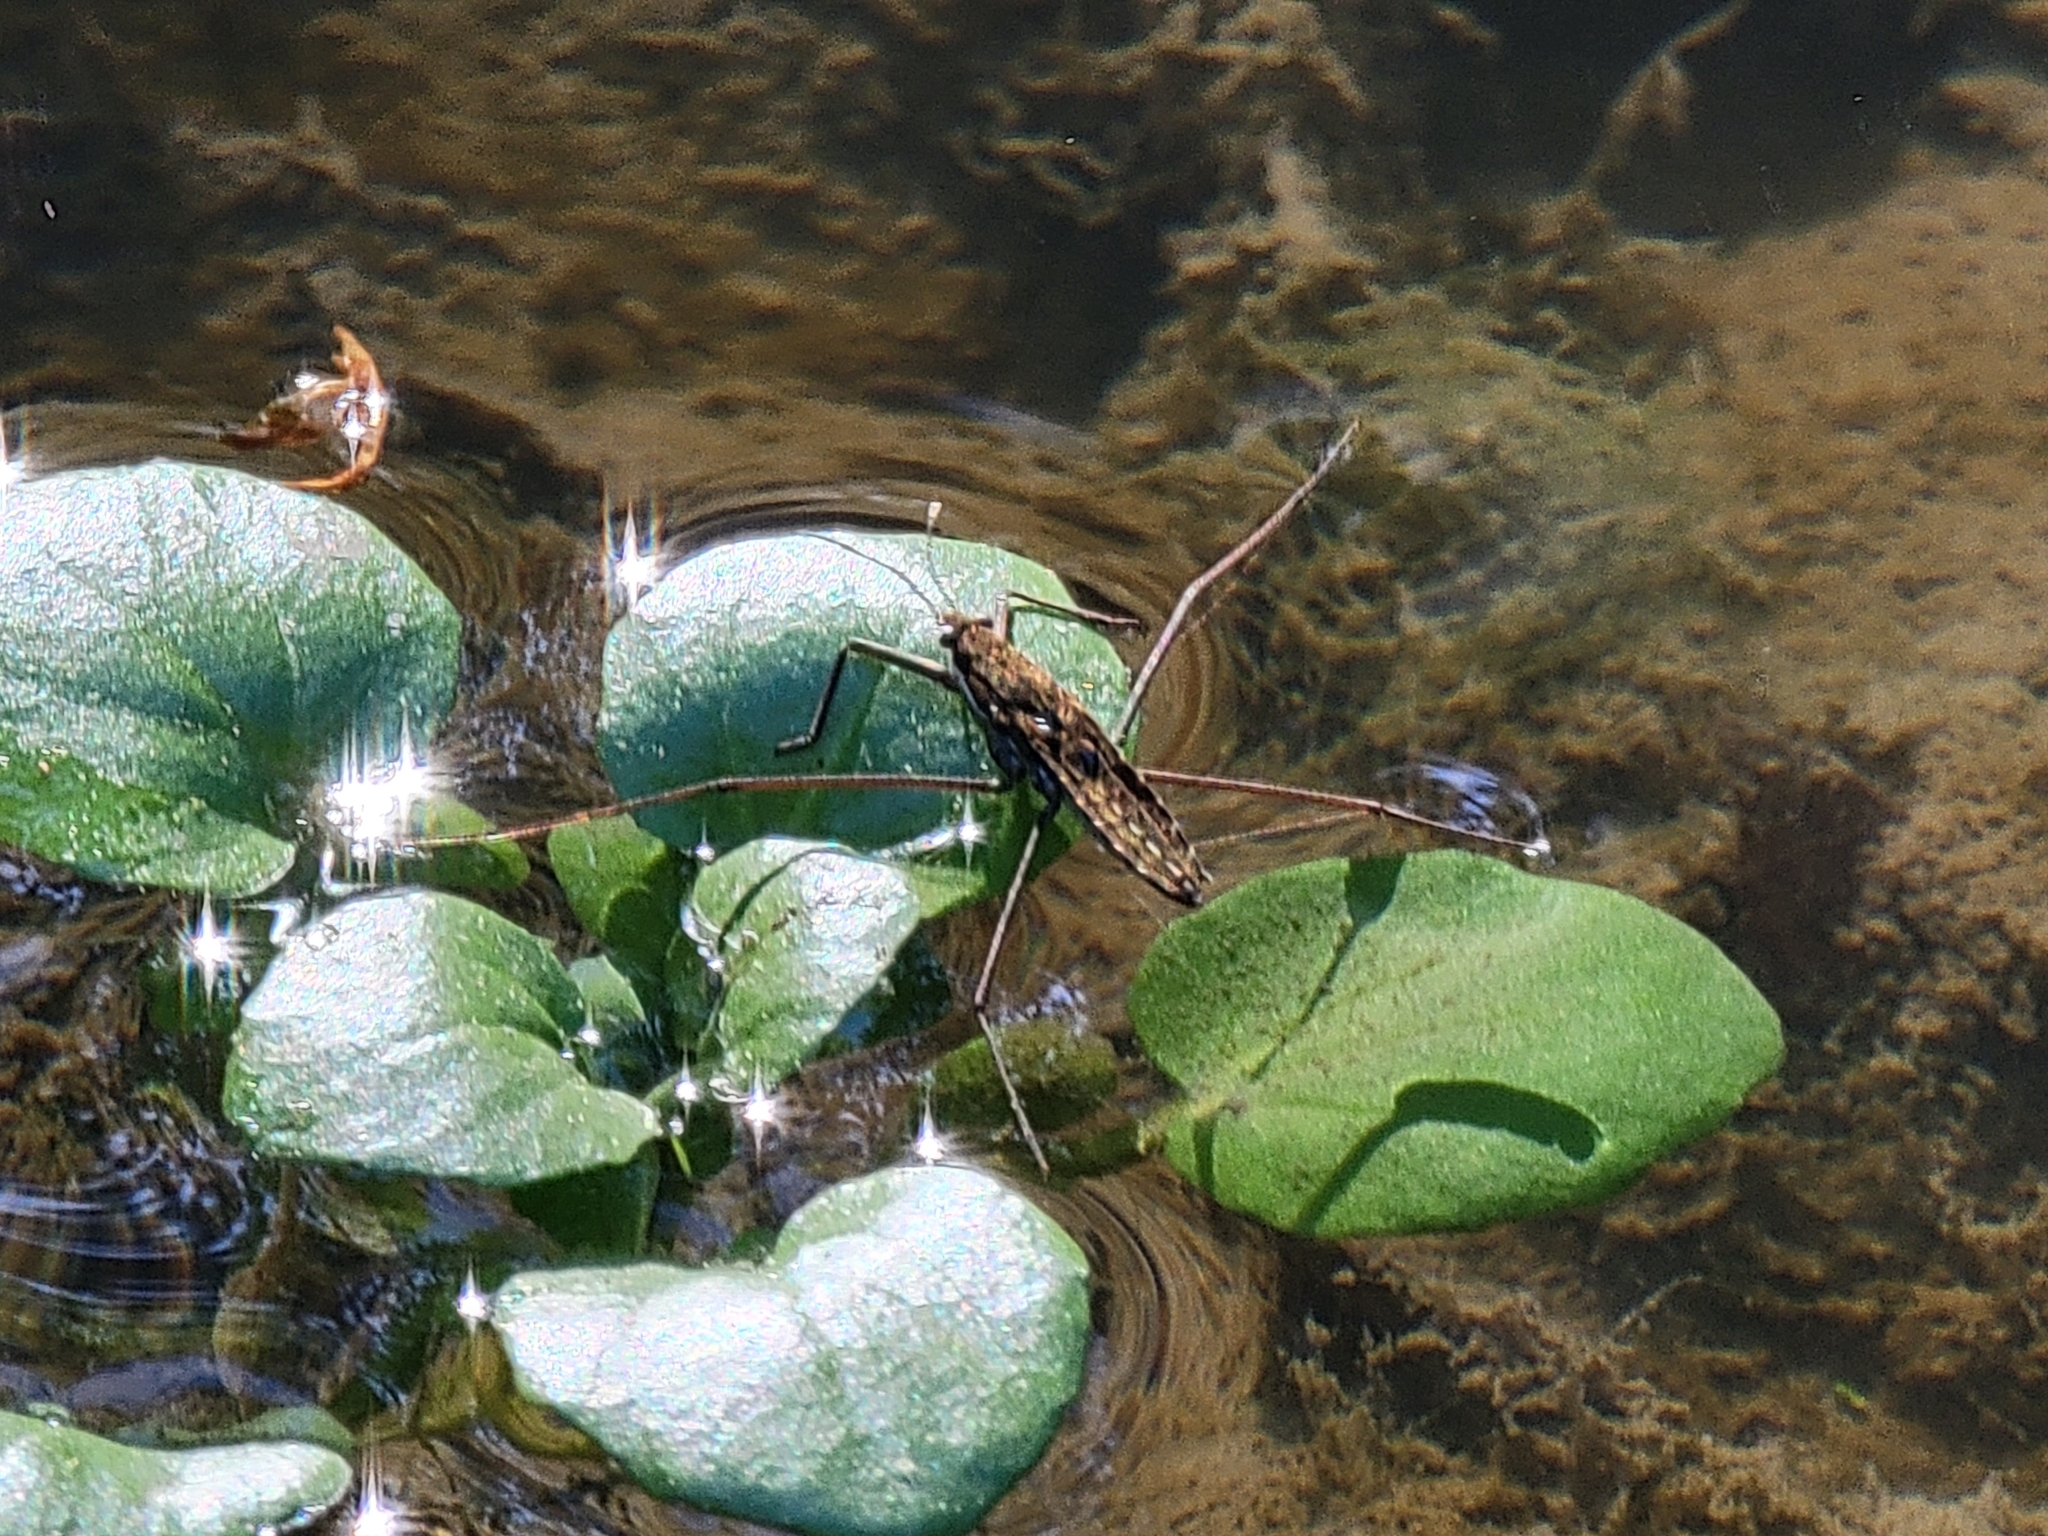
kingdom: Animalia
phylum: Arthropoda
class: Insecta
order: Hemiptera
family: Gerridae
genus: Aquarius
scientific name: Aquarius remigis
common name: Common water strider
